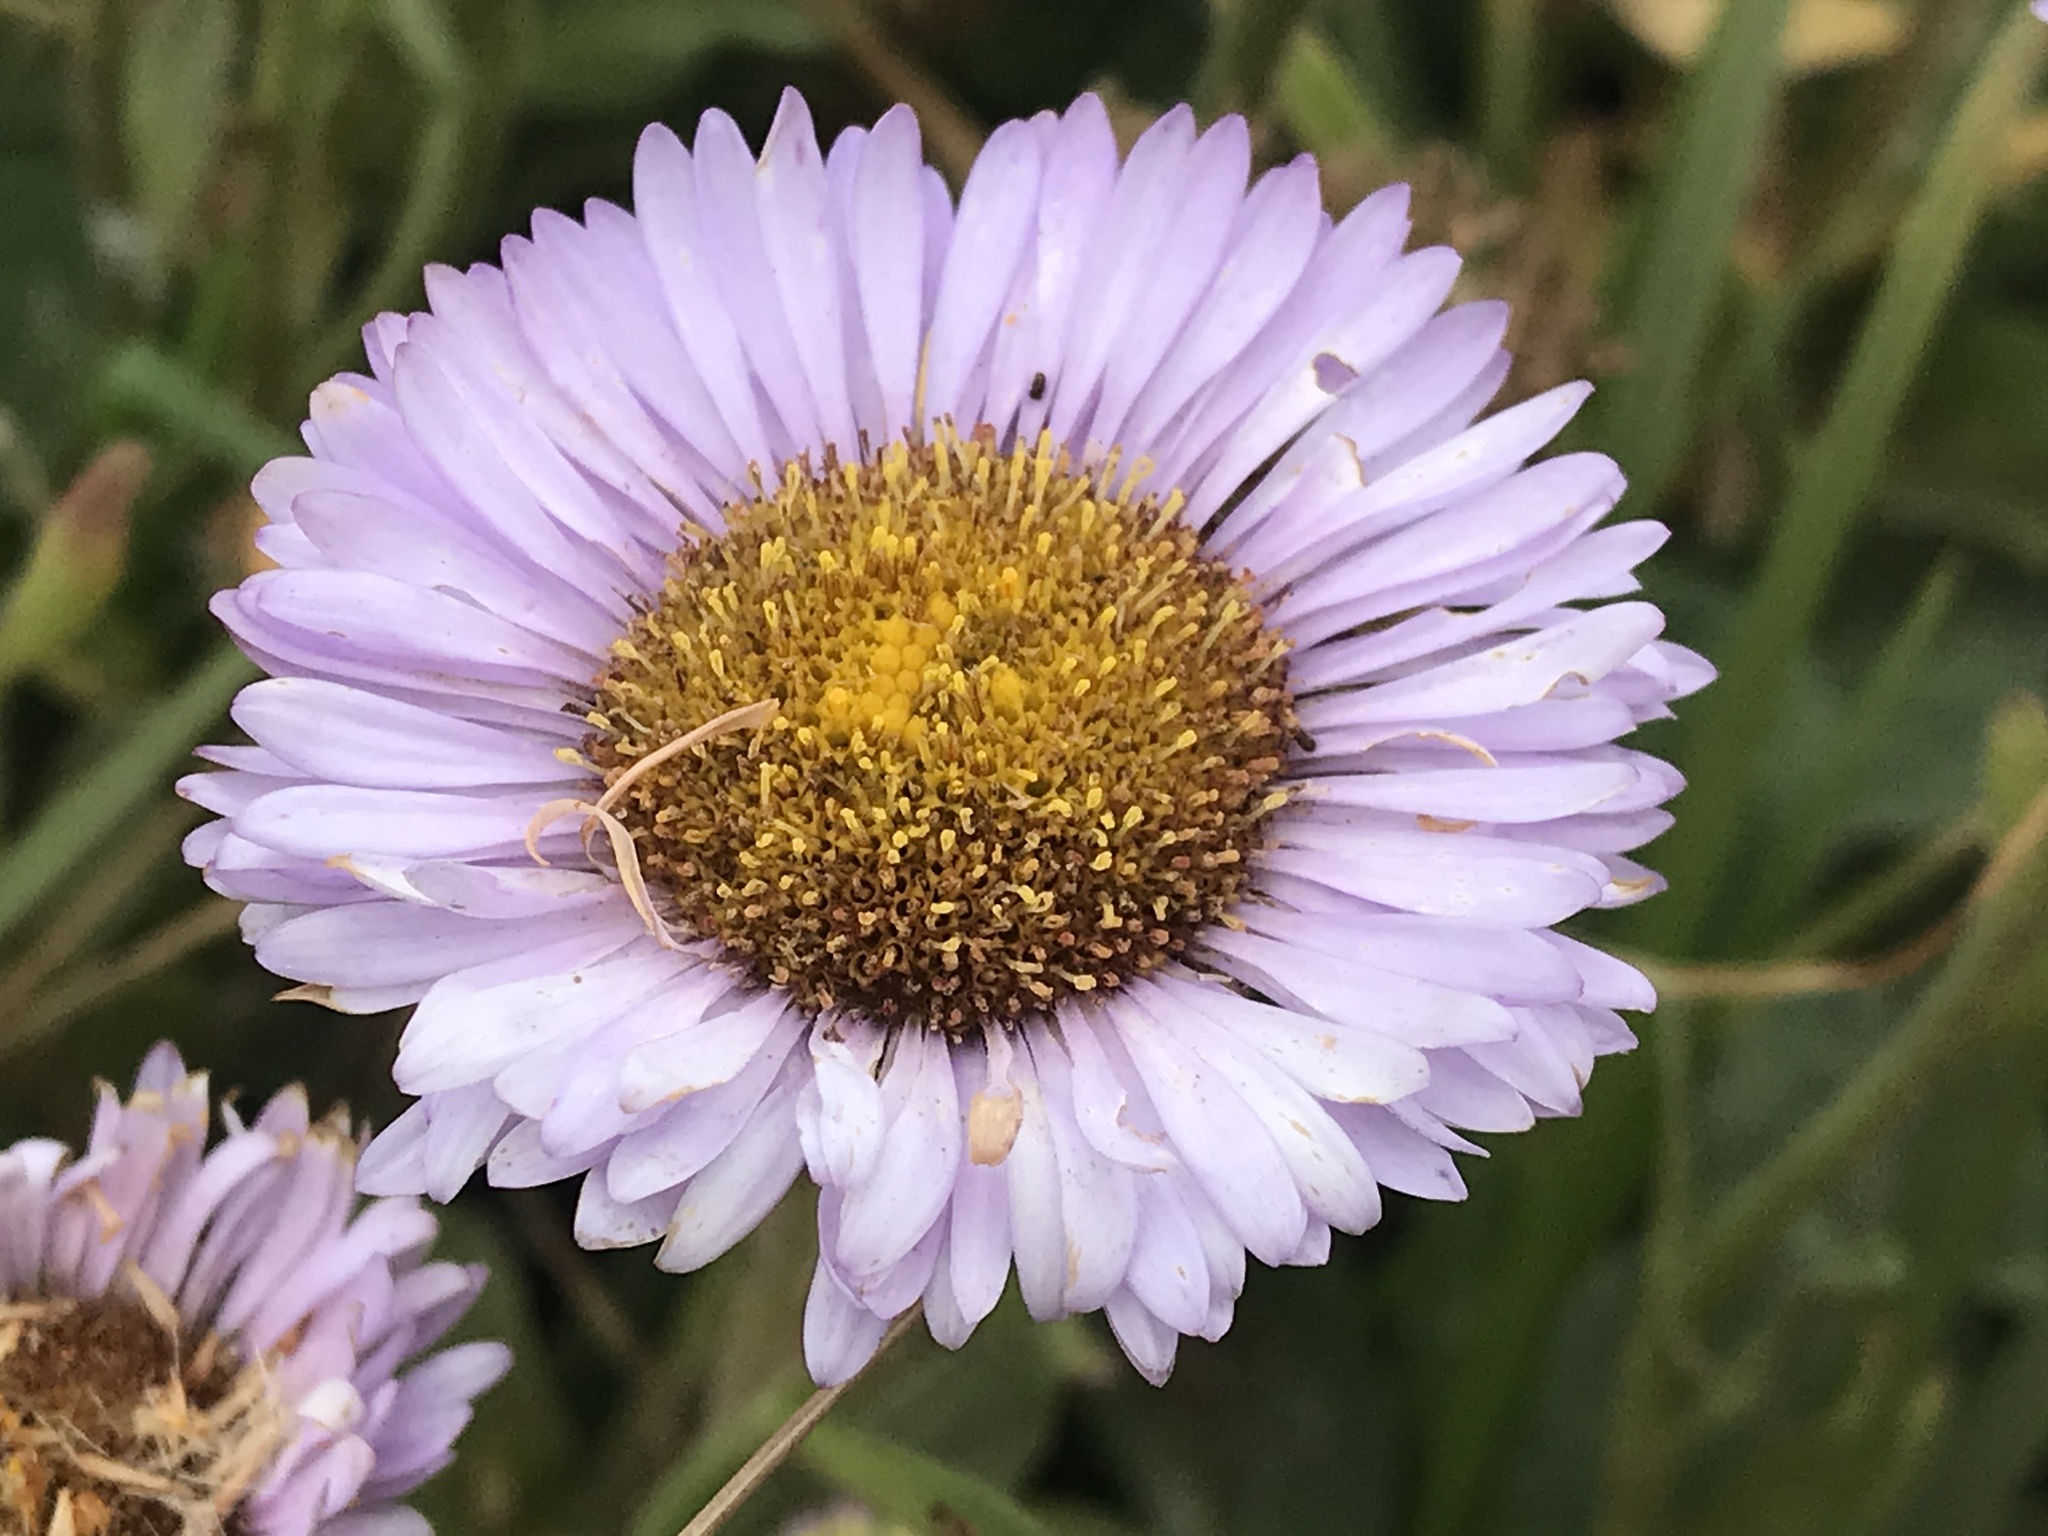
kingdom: Plantae
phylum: Tracheophyta
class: Magnoliopsida
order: Asterales
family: Asteraceae
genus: Erigeron
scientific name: Erigeron glaucus
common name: Seaside daisy
